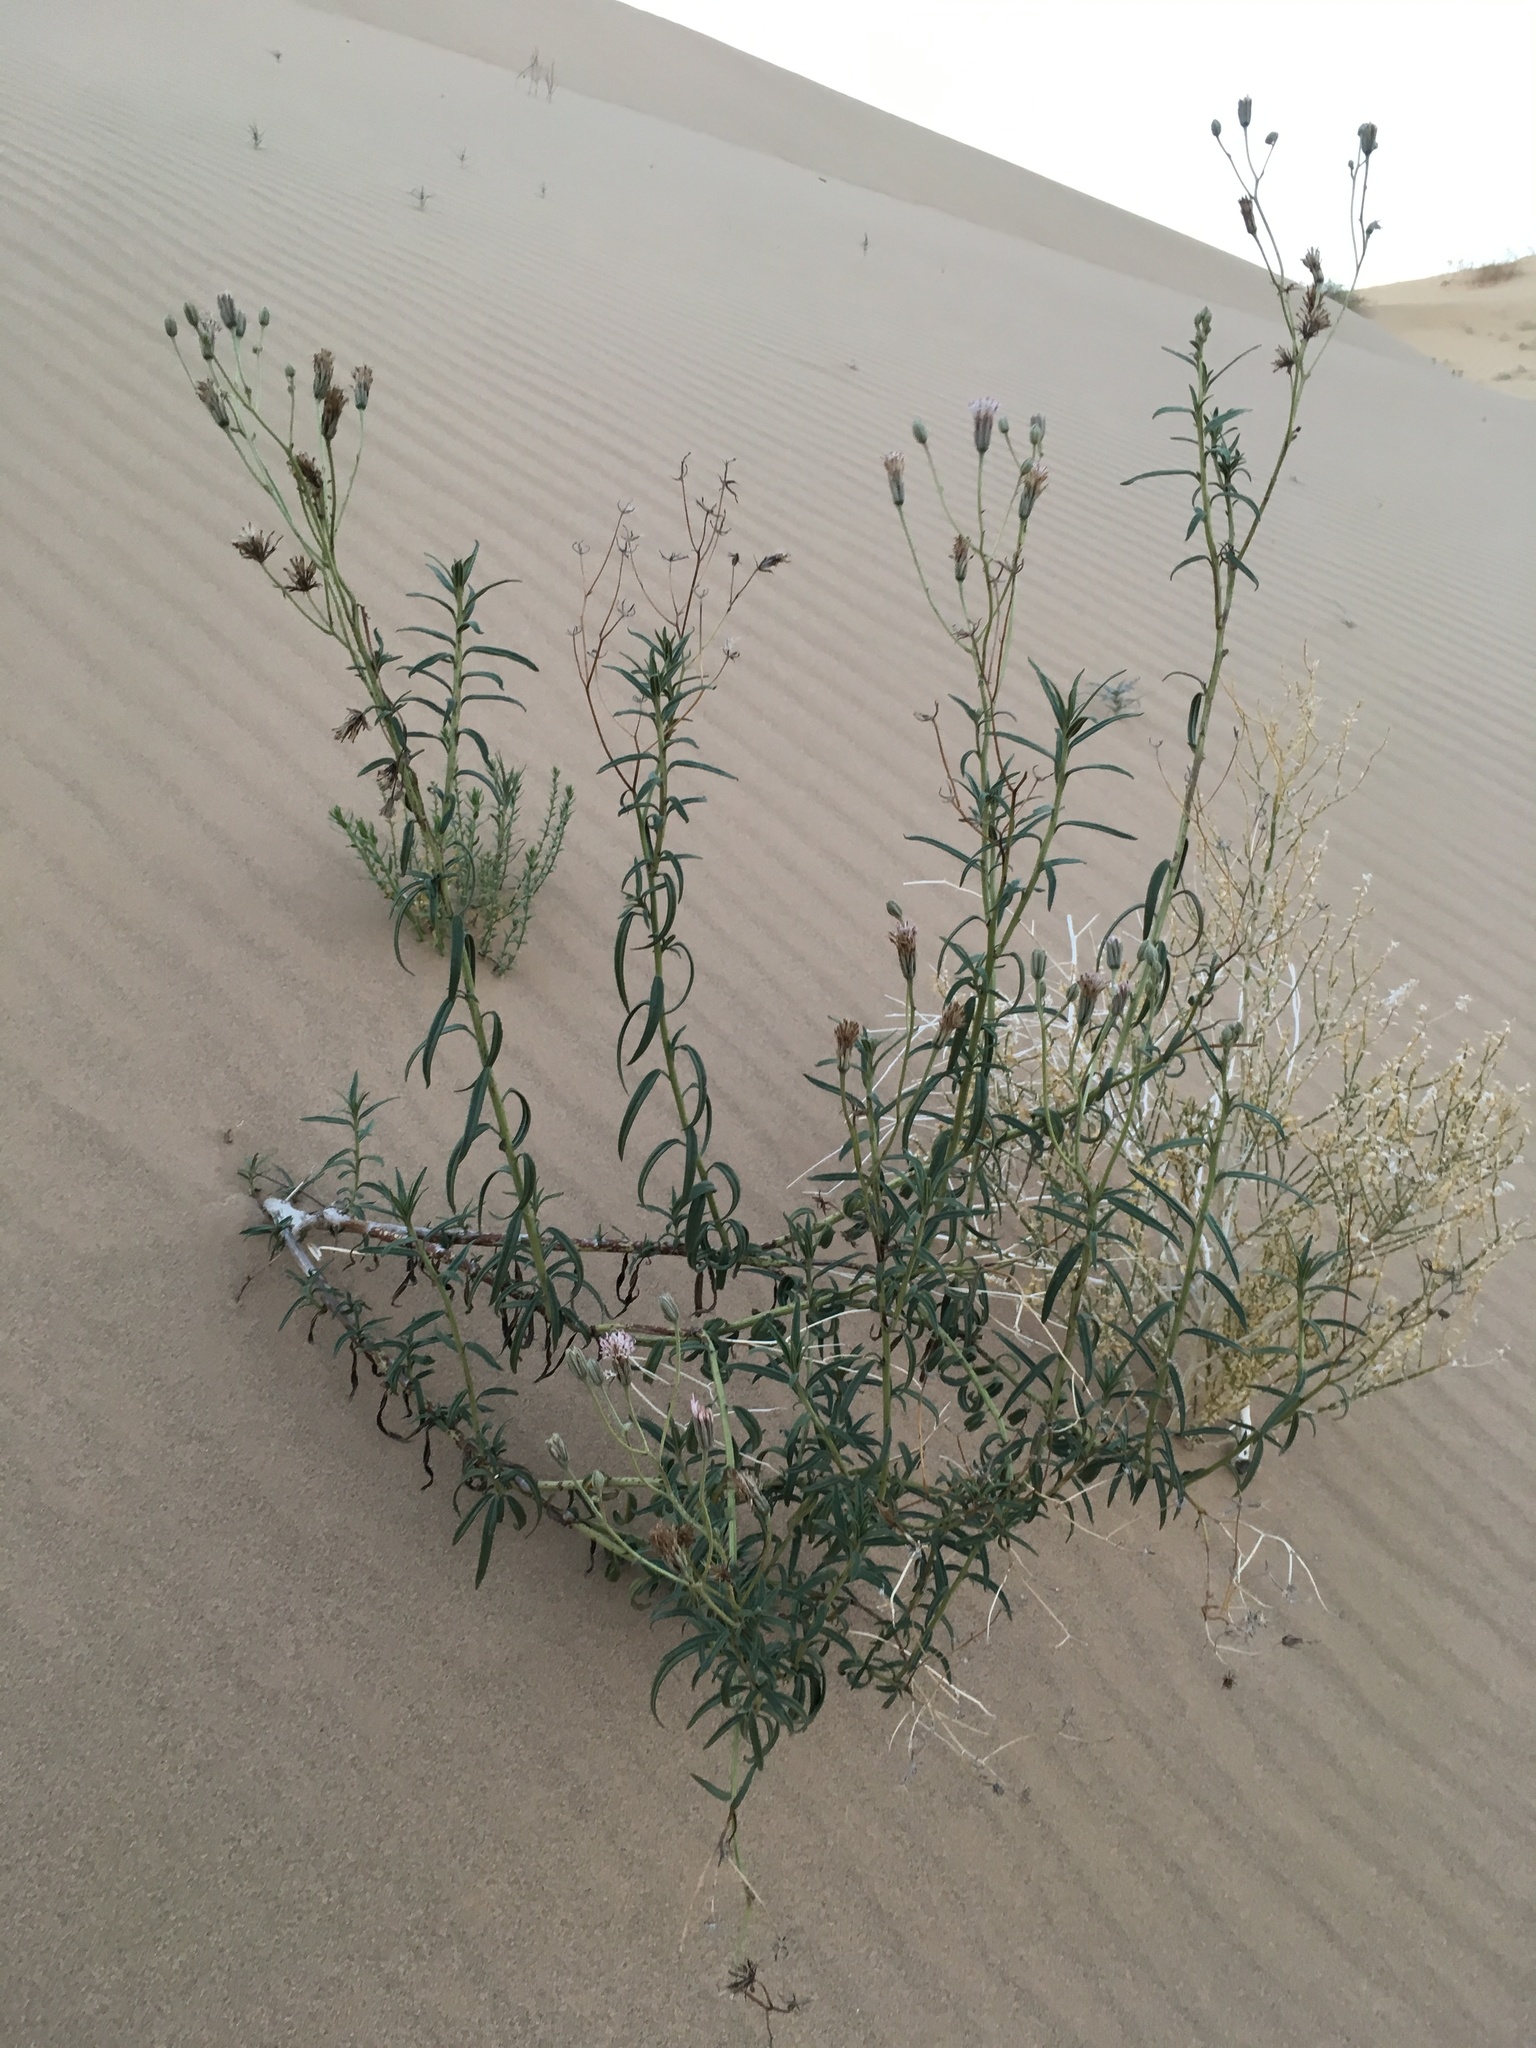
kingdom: Plantae
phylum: Tracheophyta
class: Magnoliopsida
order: Asterales
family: Asteraceae
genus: Palafoxia
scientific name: Palafoxia arida
